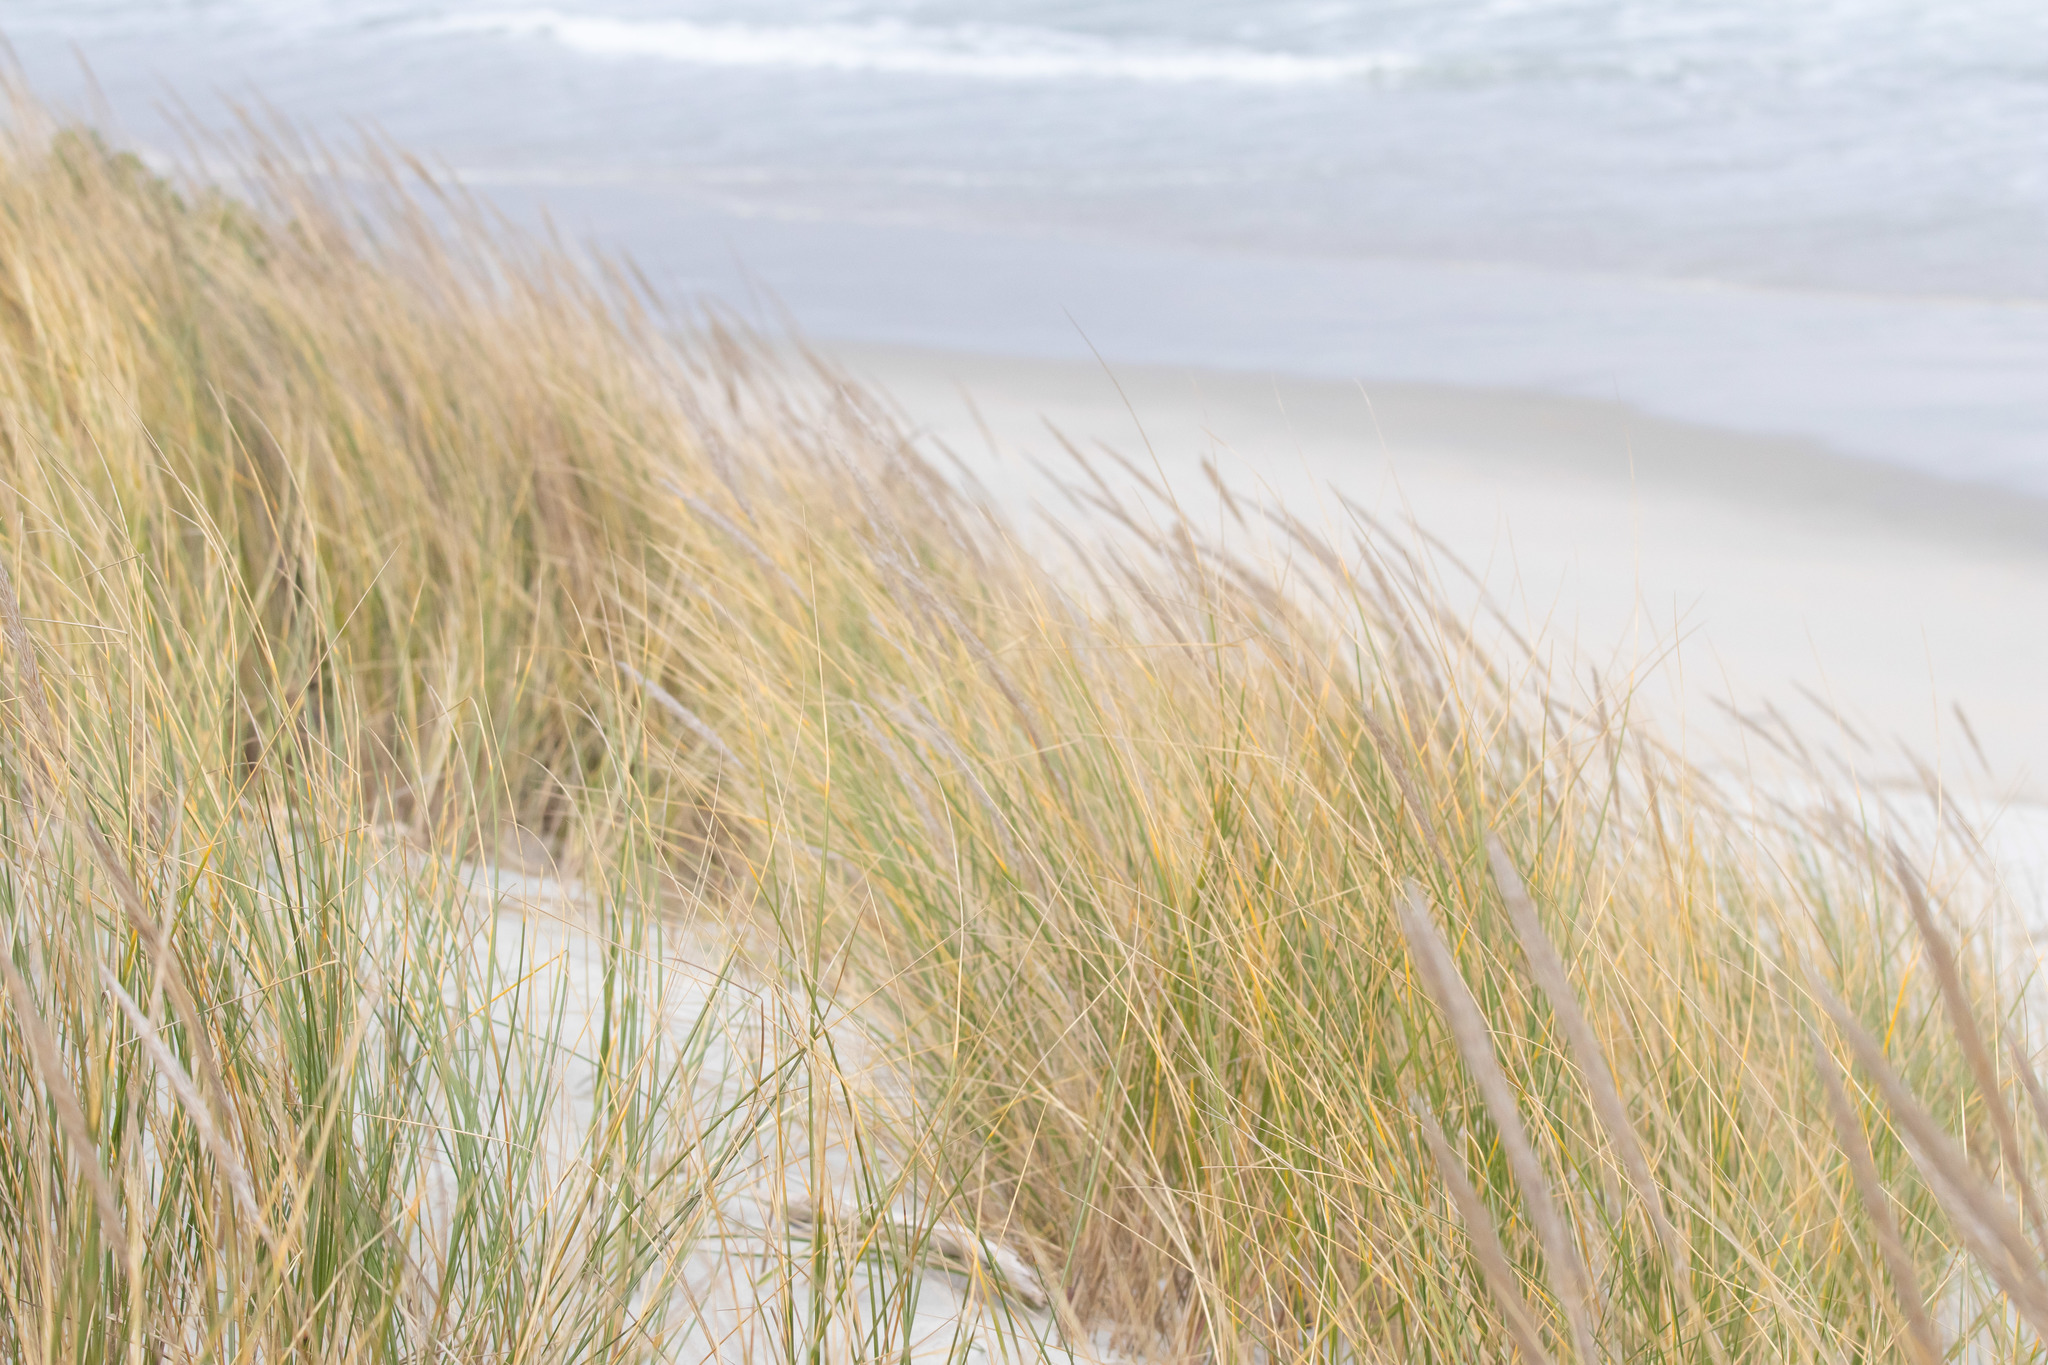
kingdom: Plantae
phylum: Tracheophyta
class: Liliopsida
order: Poales
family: Poaceae
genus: Calamagrostis
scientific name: Calamagrostis arenaria
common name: European beachgrass
